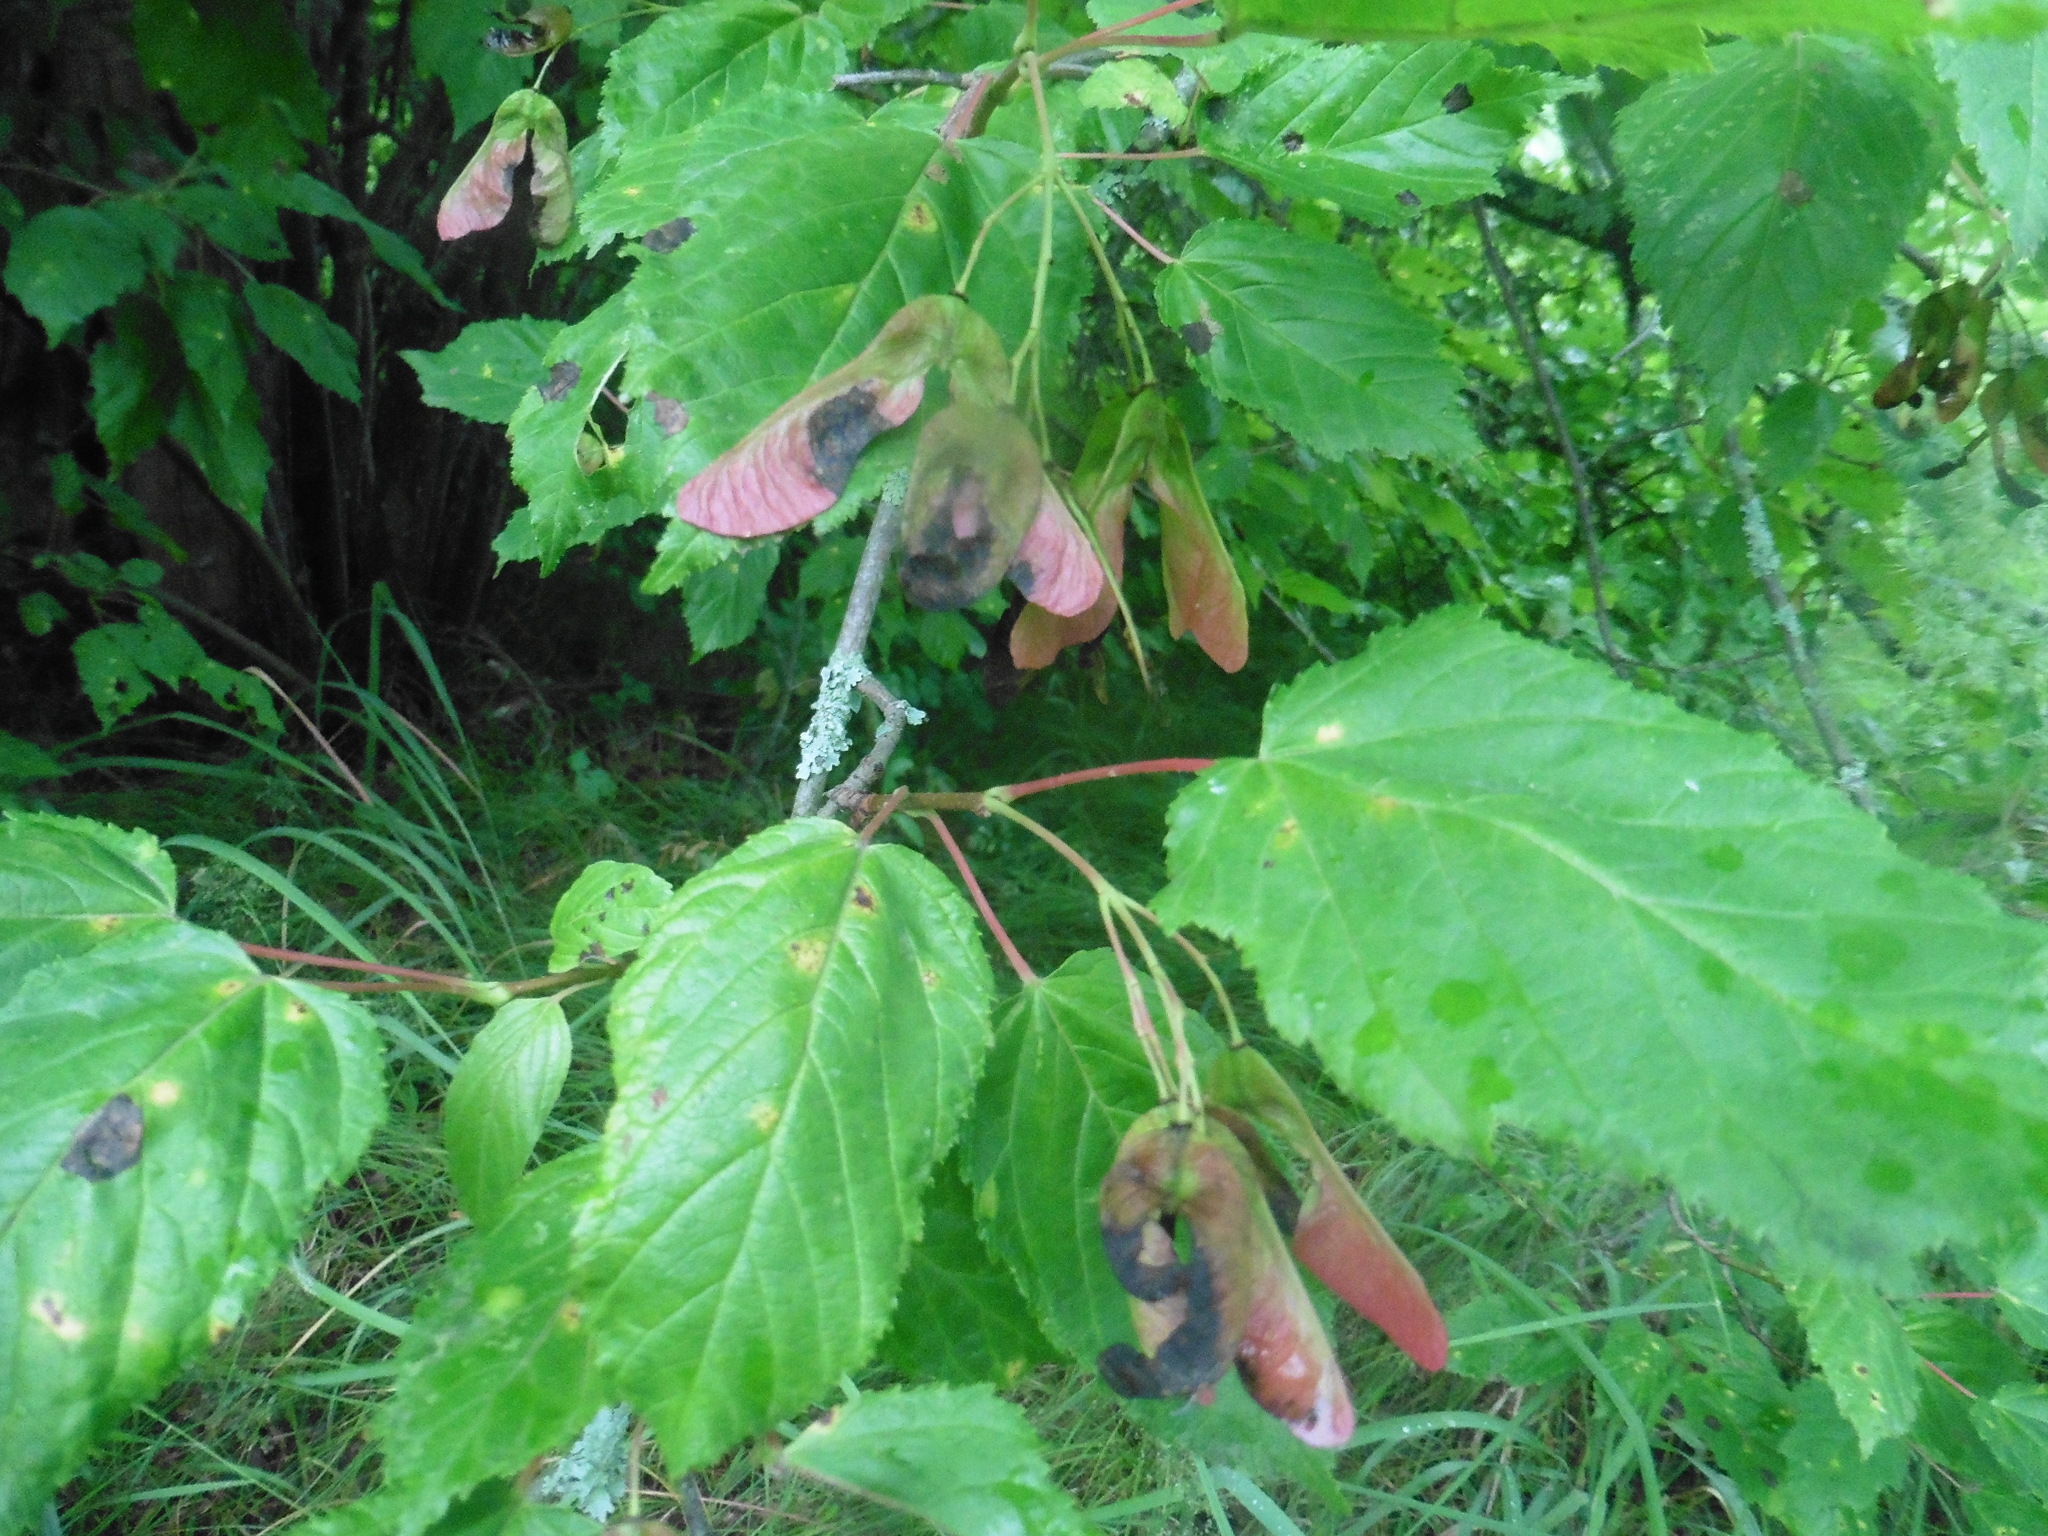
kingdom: Plantae
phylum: Tracheophyta
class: Magnoliopsida
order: Sapindales
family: Sapindaceae
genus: Acer
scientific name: Acer tataricum
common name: Tartar maple
